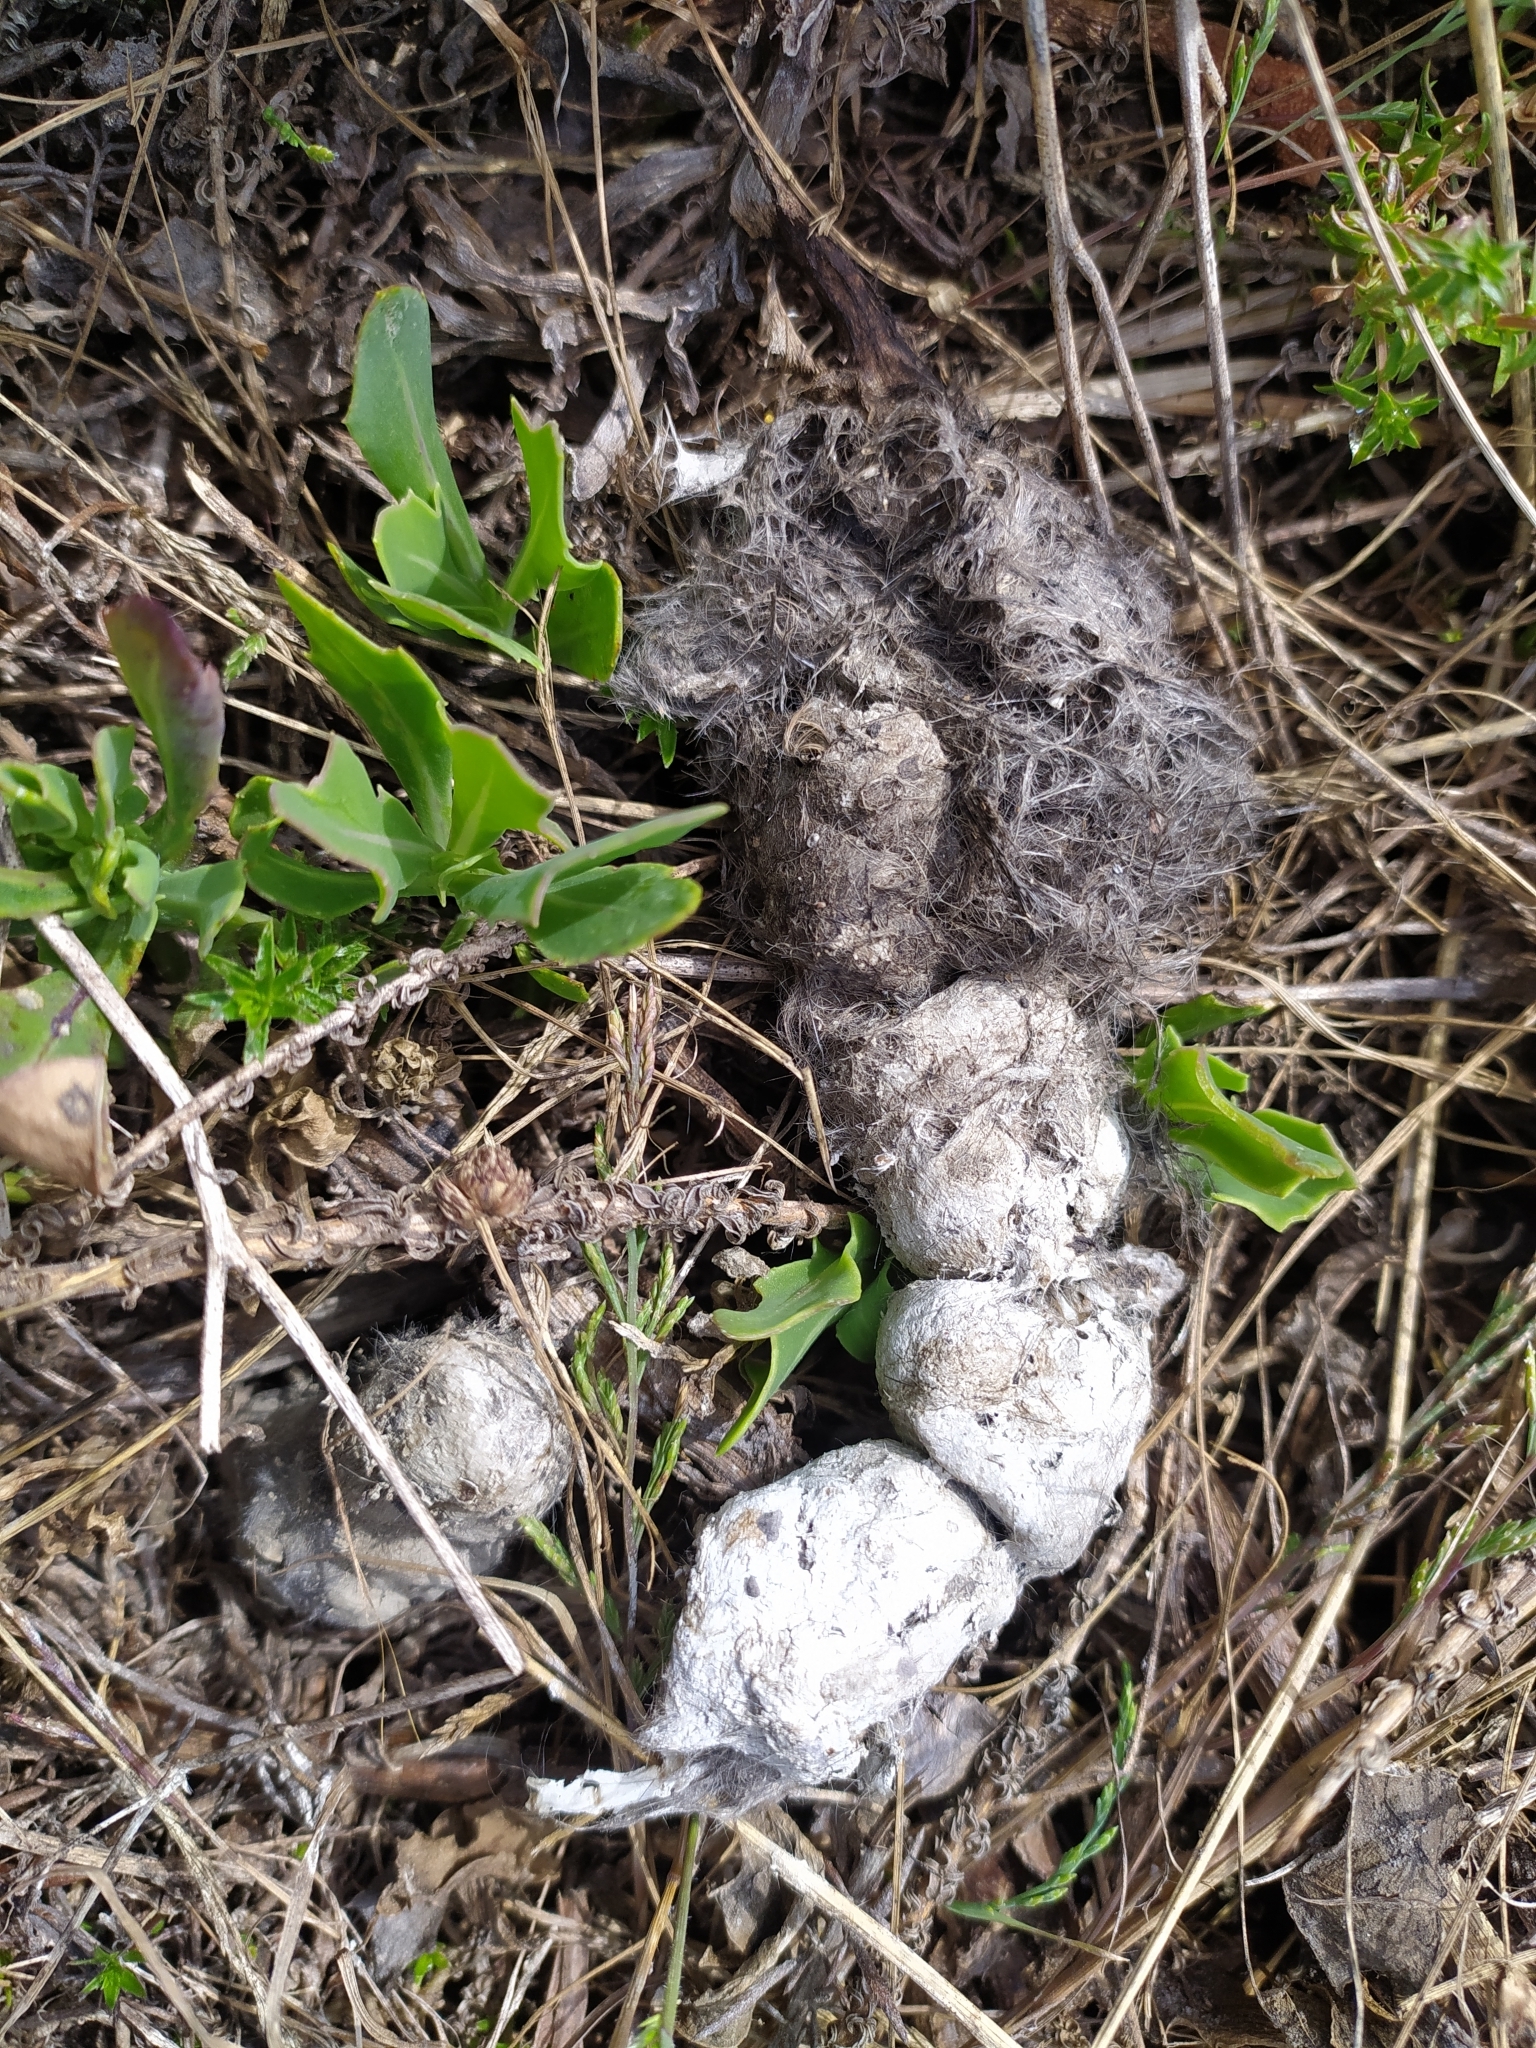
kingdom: Animalia
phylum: Chordata
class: Mammalia
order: Carnivora
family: Felidae
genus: Caracal
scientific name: Caracal caracal
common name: Caracal
